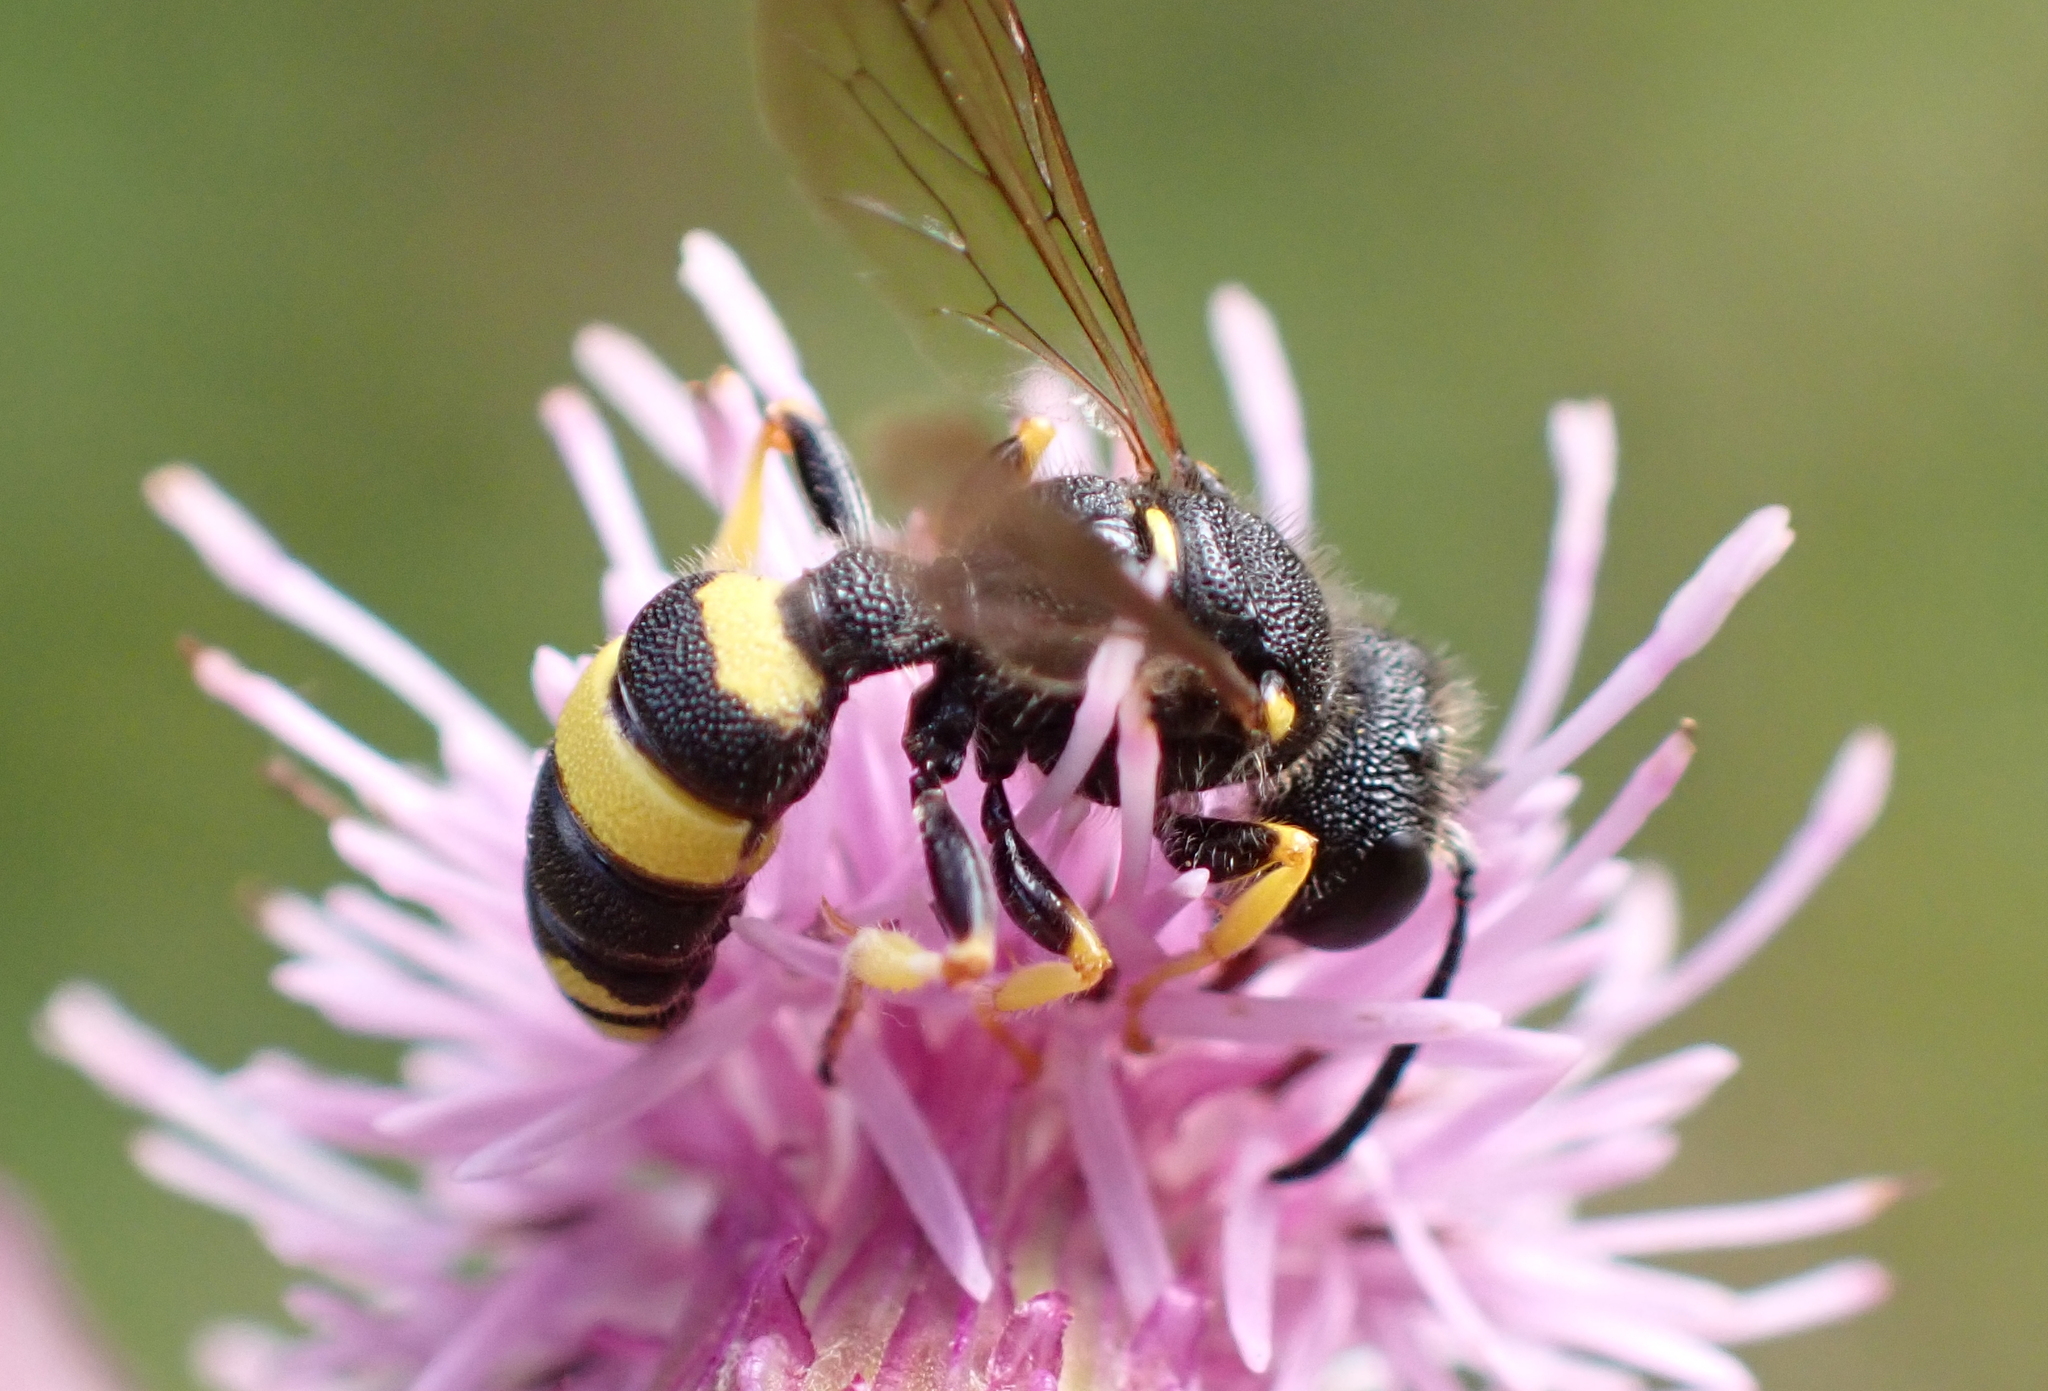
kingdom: Animalia
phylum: Arthropoda
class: Insecta
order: Hymenoptera
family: Crabronidae
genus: Cerceris
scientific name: Cerceris rybyensis
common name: Ornate tailed digger wasp
